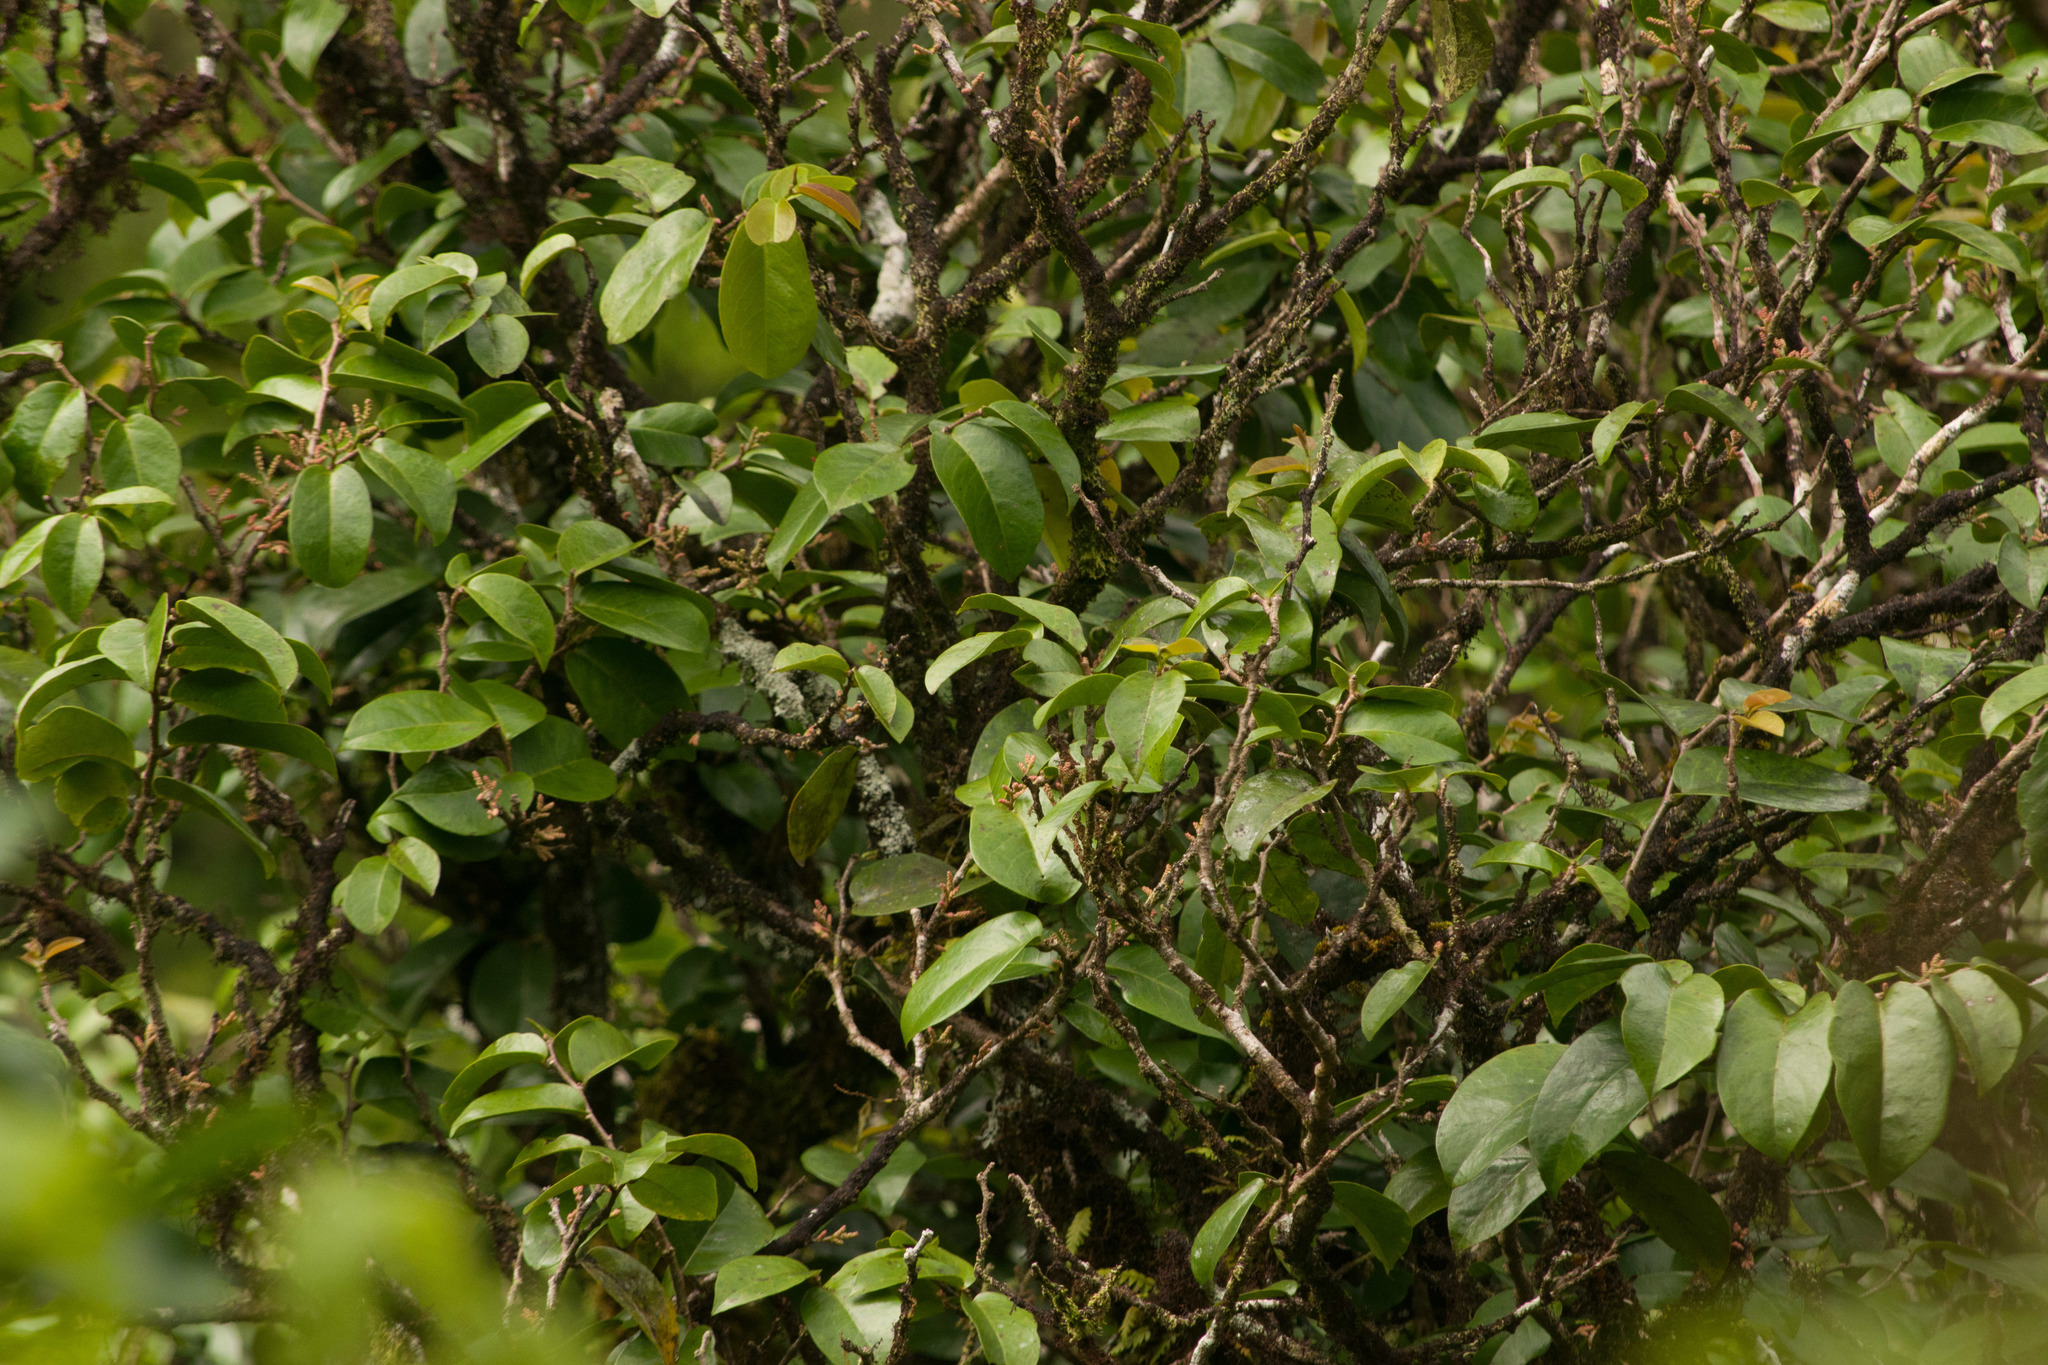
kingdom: Plantae
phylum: Tracheophyta
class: Magnoliopsida
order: Malpighiales
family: Phyllanthaceae
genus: Antidesma
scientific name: Antidesma platyphyllum
